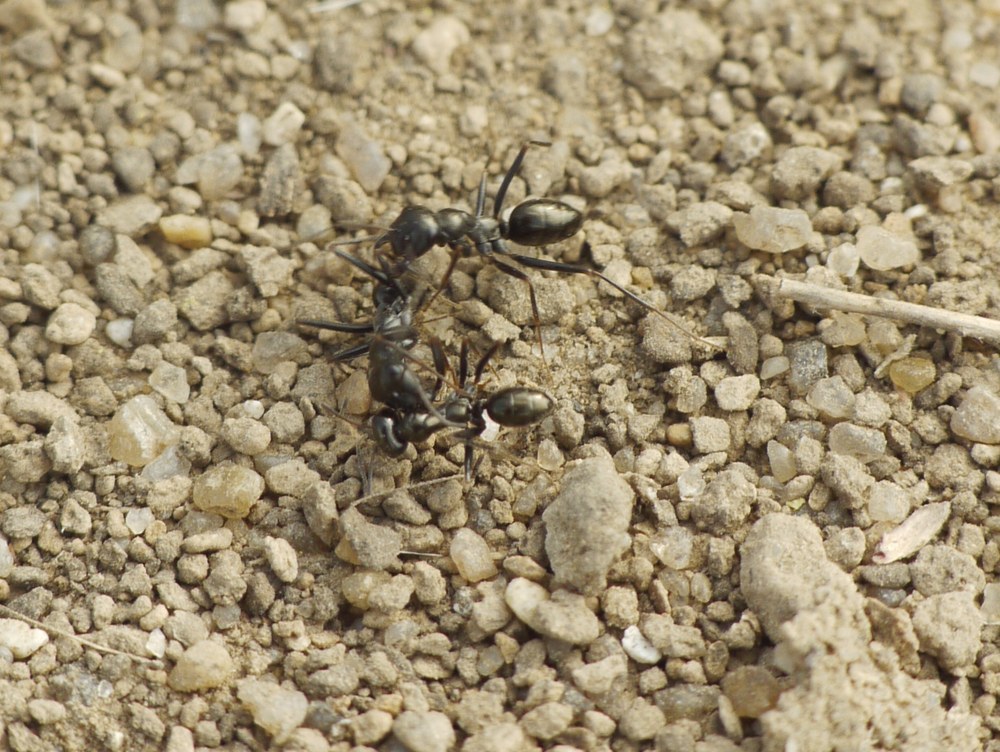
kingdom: Animalia
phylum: Arthropoda
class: Insecta
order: Hymenoptera
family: Formicidae
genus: Cataglyphis
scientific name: Cataglyphis aenescens
